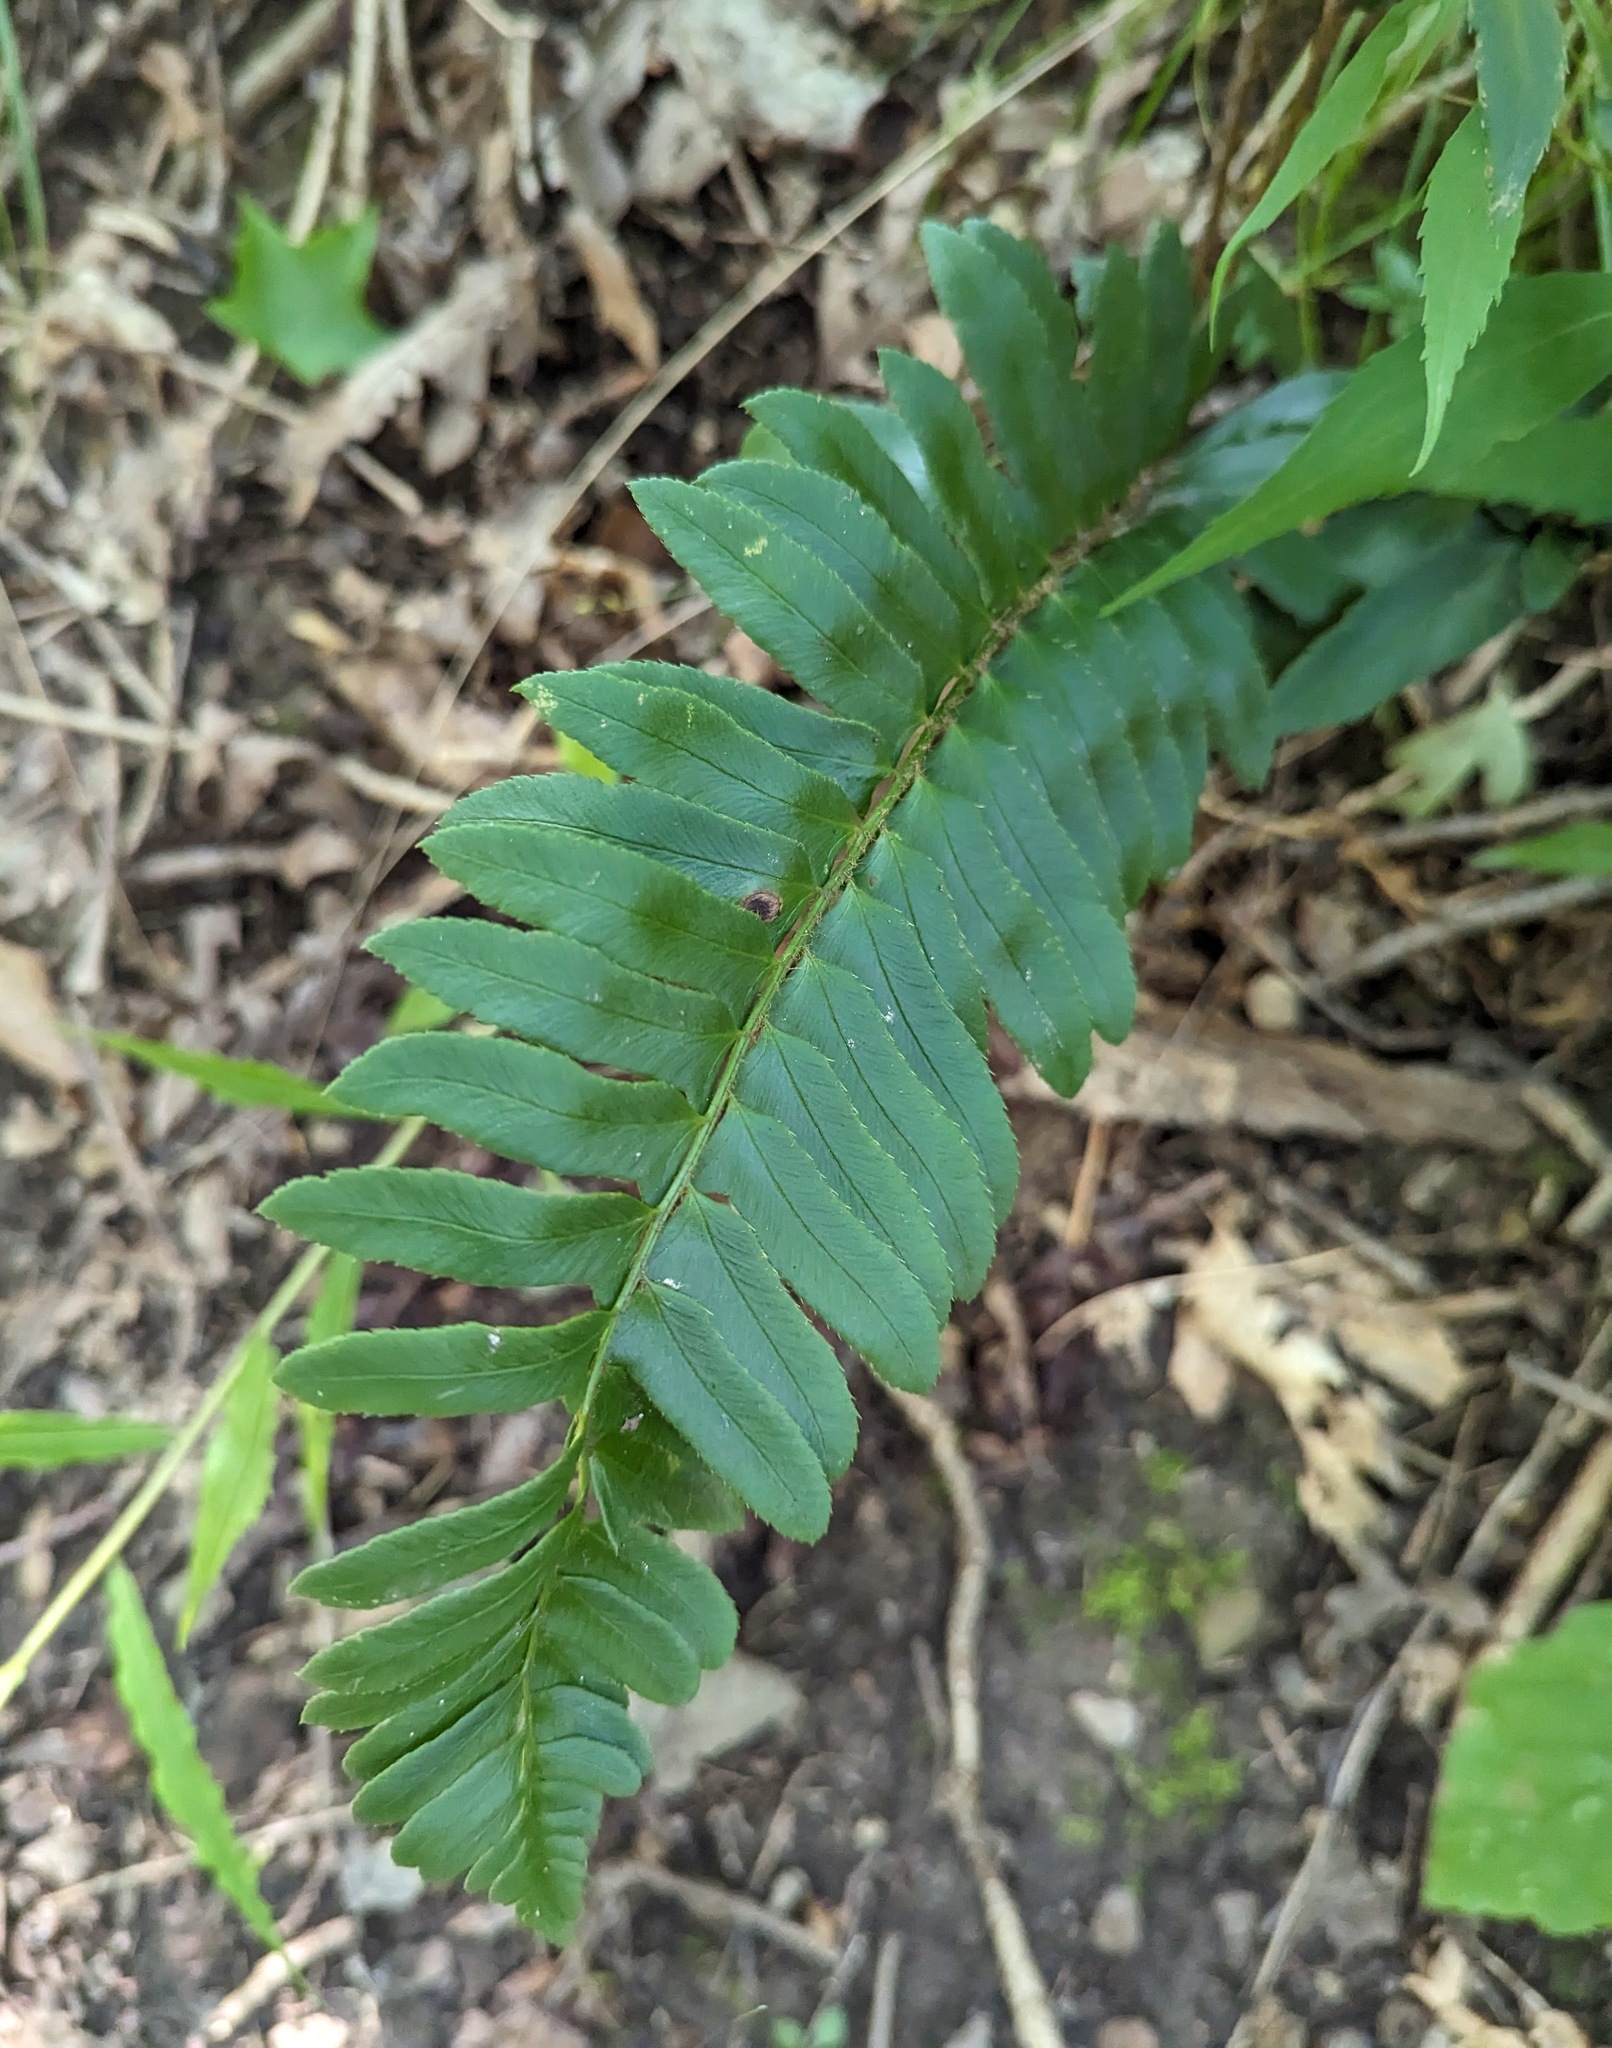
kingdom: Plantae
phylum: Tracheophyta
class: Polypodiopsida
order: Polypodiales
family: Dryopteridaceae
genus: Polystichum
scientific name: Polystichum acrostichoides
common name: Christmas fern
